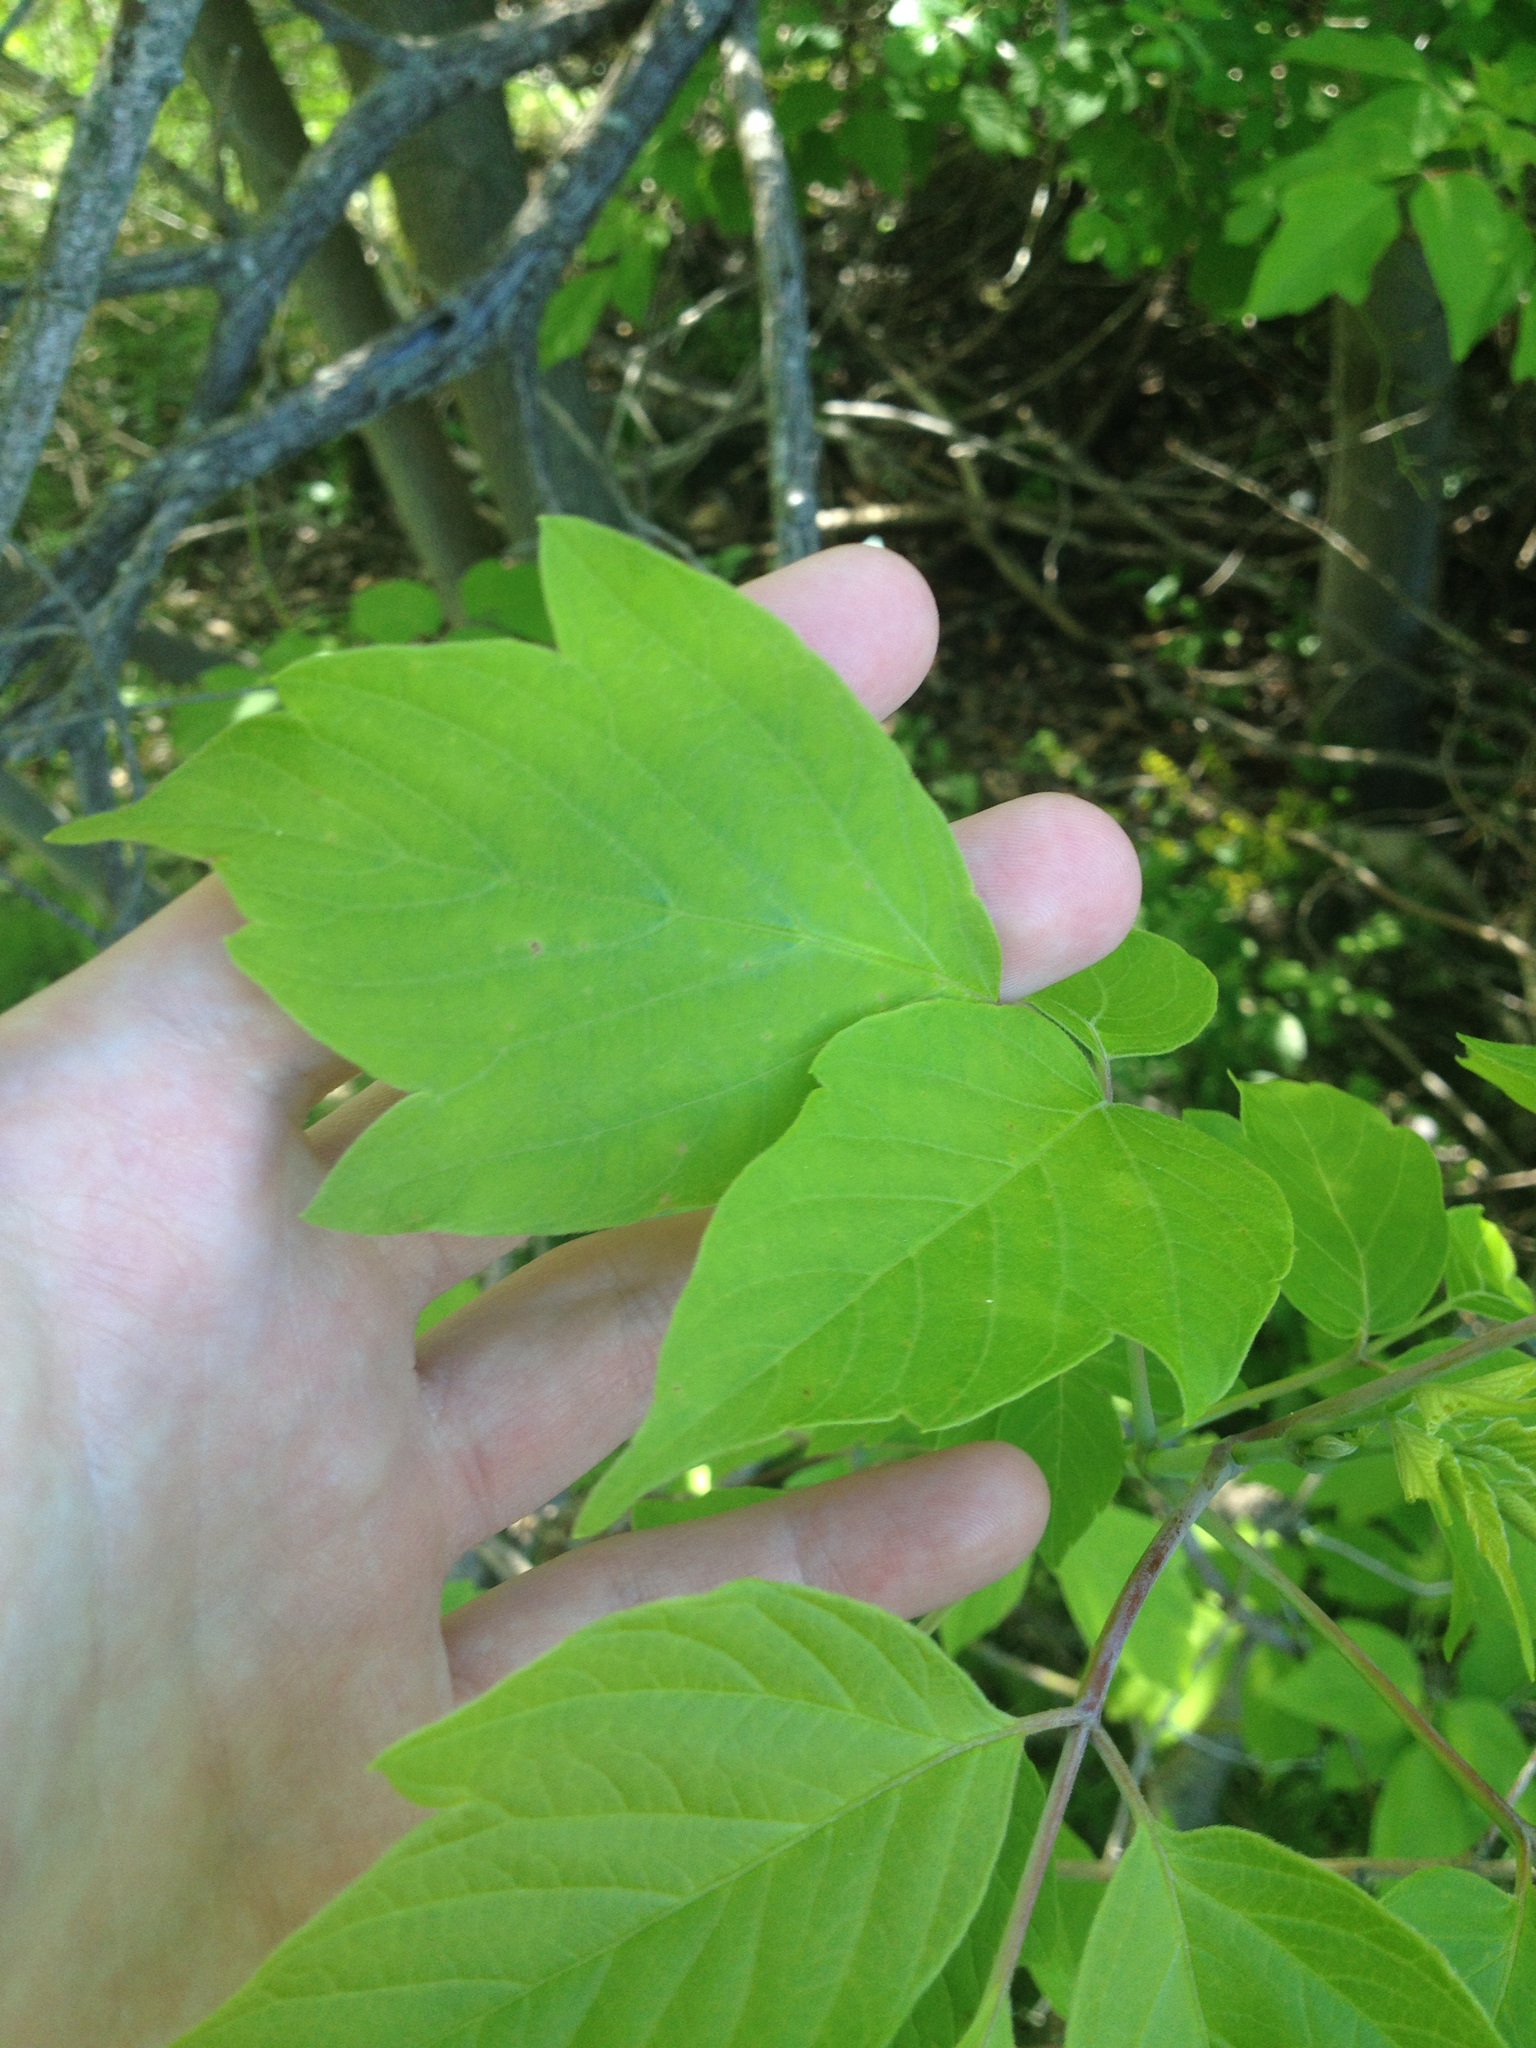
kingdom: Plantae
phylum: Tracheophyta
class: Magnoliopsida
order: Sapindales
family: Sapindaceae
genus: Acer
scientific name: Acer negundo
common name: Ashleaf maple
